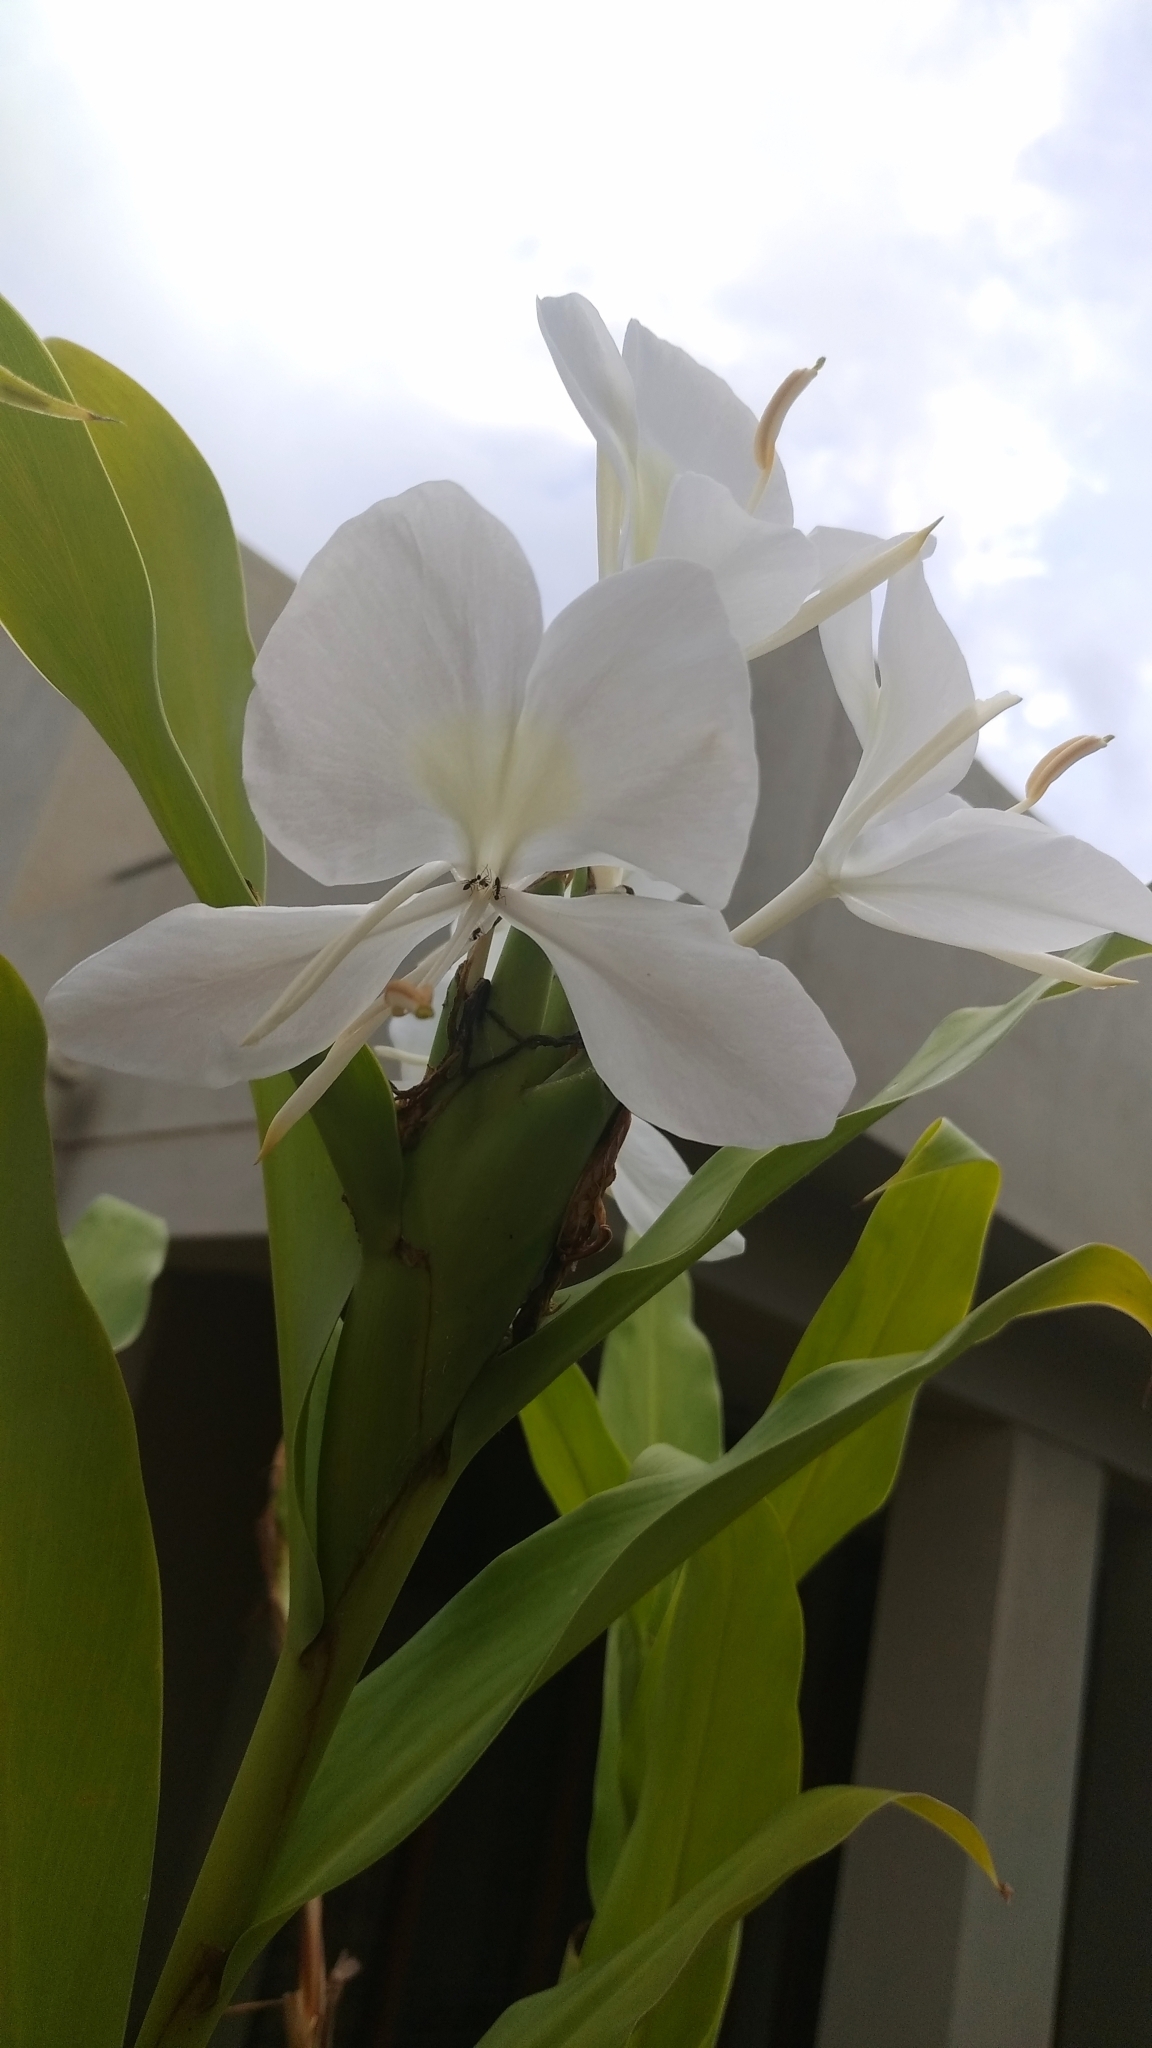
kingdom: Plantae
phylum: Tracheophyta
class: Liliopsida
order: Zingiberales
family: Zingiberaceae
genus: Hedychium
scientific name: Hedychium coronarium
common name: White garland-lily
